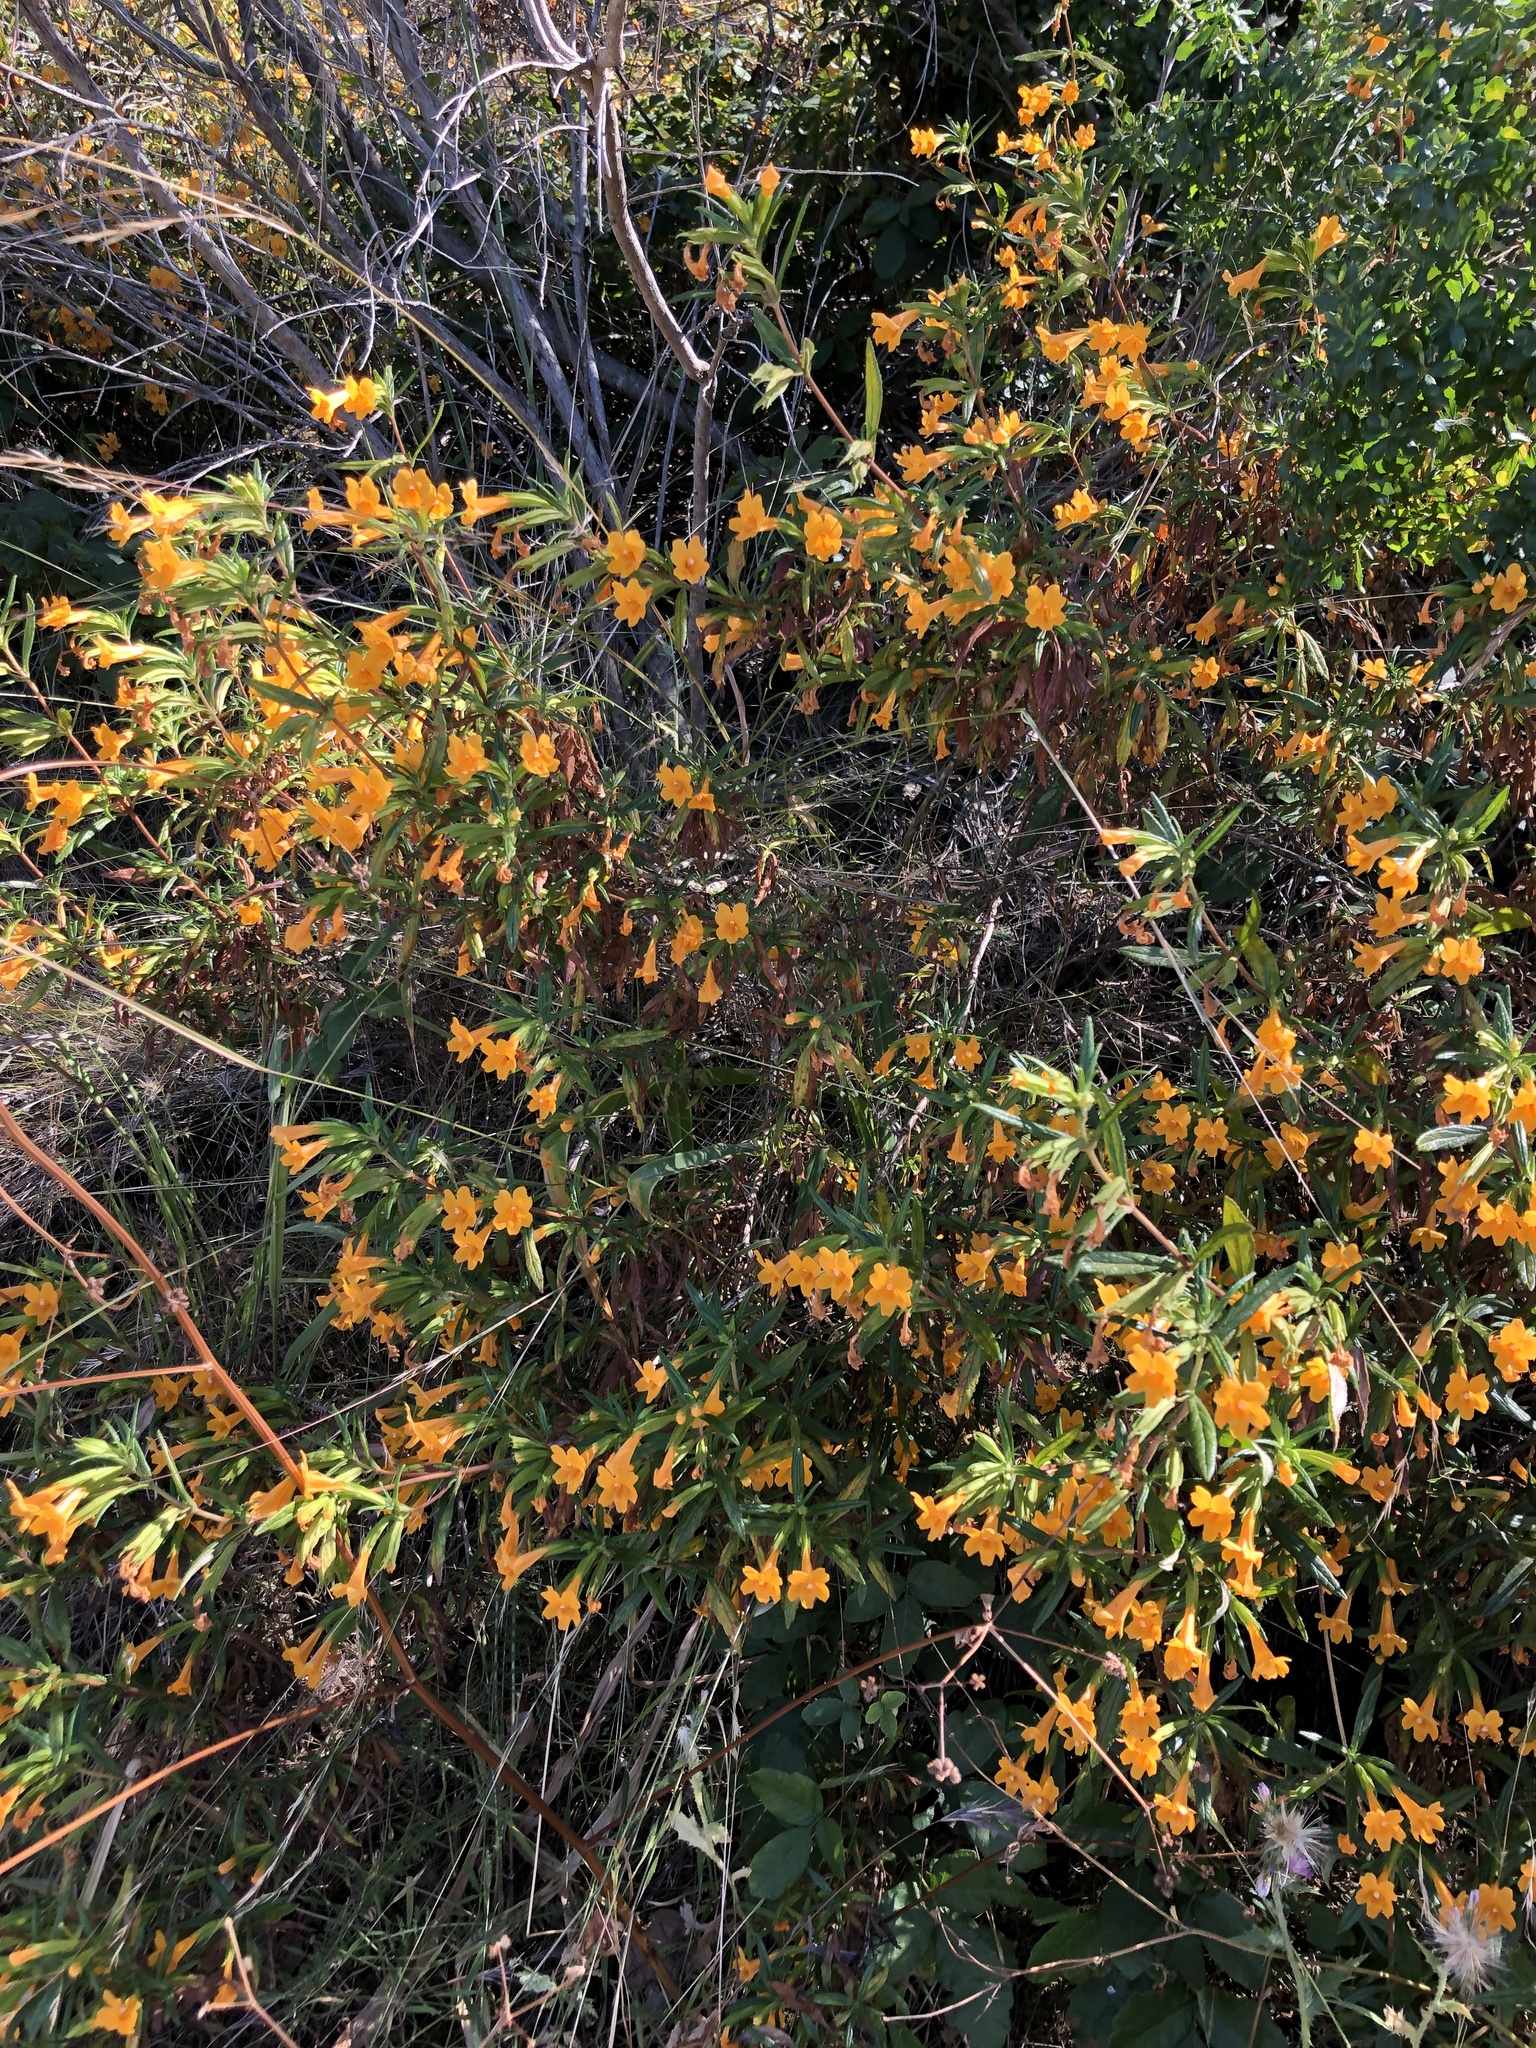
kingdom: Plantae
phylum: Tracheophyta
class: Magnoliopsida
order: Lamiales
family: Phrymaceae
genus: Diplacus
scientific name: Diplacus aurantiacus
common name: Bush monkey-flower
